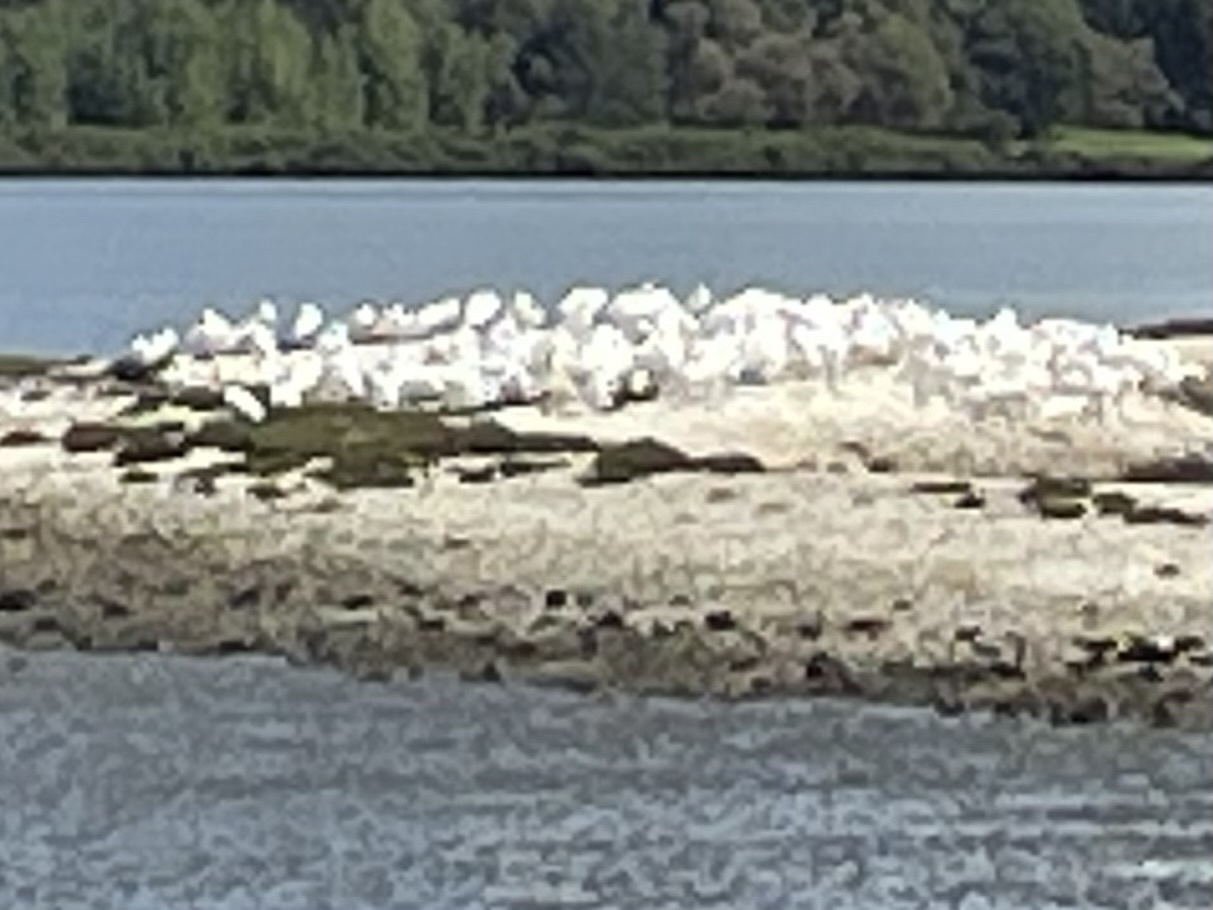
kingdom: Animalia
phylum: Chordata
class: Aves
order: Pelecaniformes
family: Threskiornithidae
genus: Platalea
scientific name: Platalea regia
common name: Royal spoonbill
